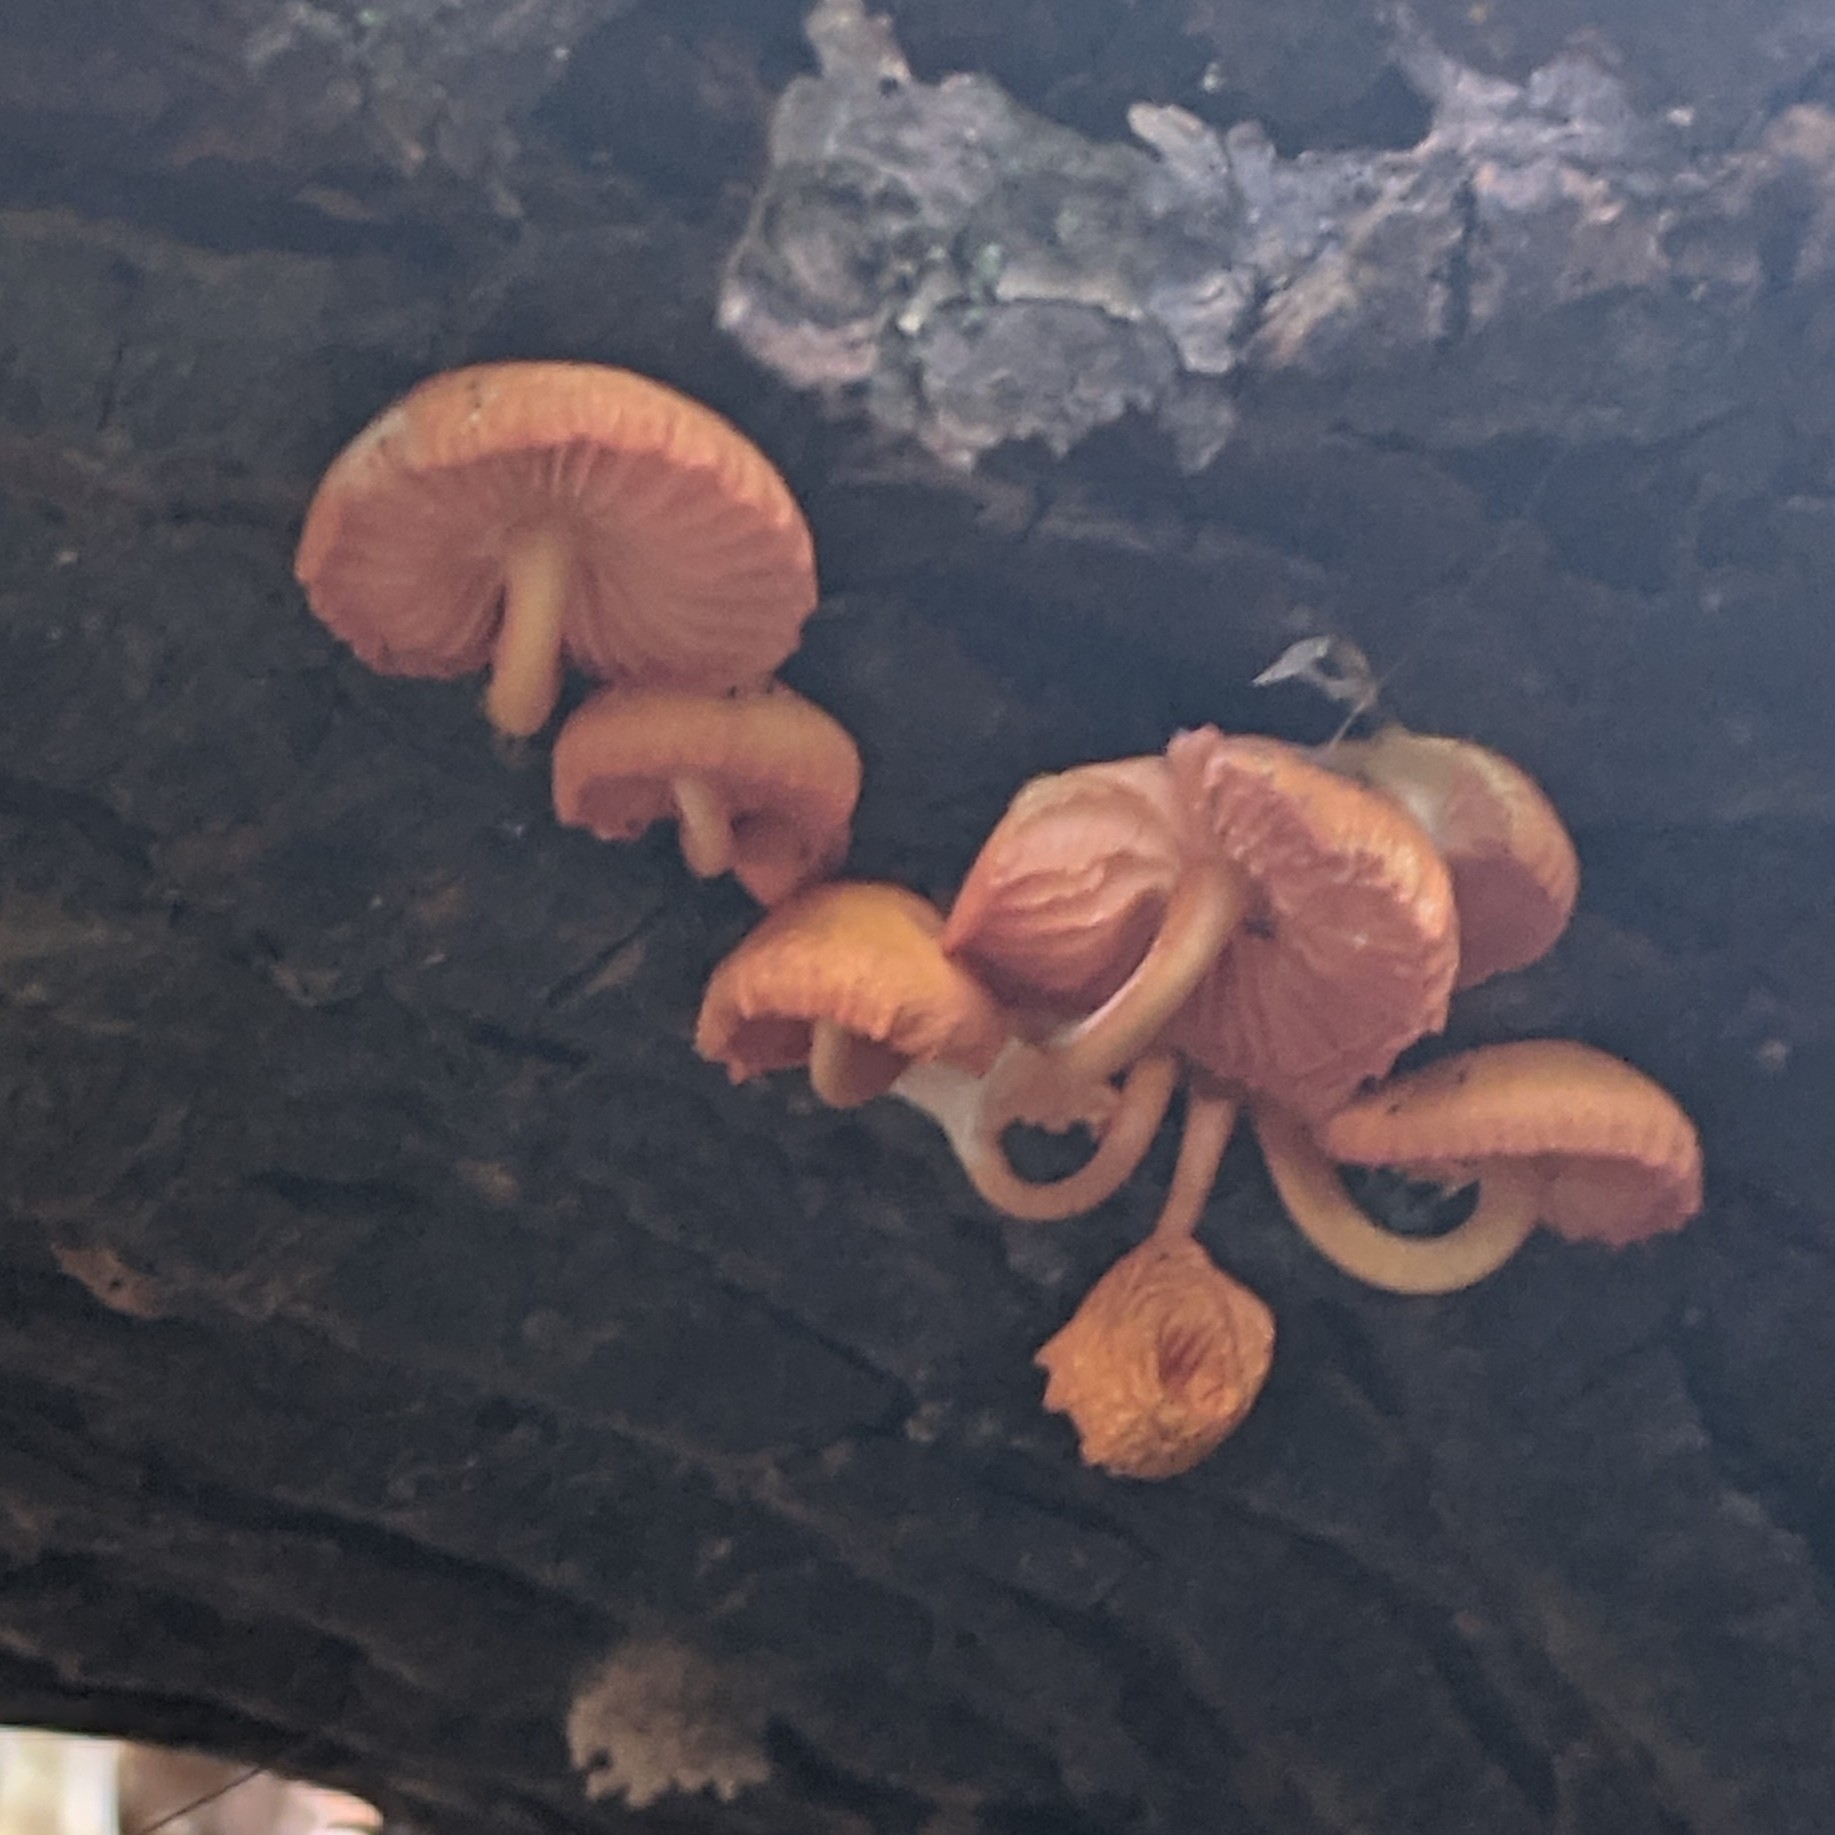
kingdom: Fungi
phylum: Basidiomycota
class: Agaricomycetes
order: Agaricales
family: Mycenaceae
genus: Mycena
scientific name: Mycena leaiana
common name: Orange mycena
